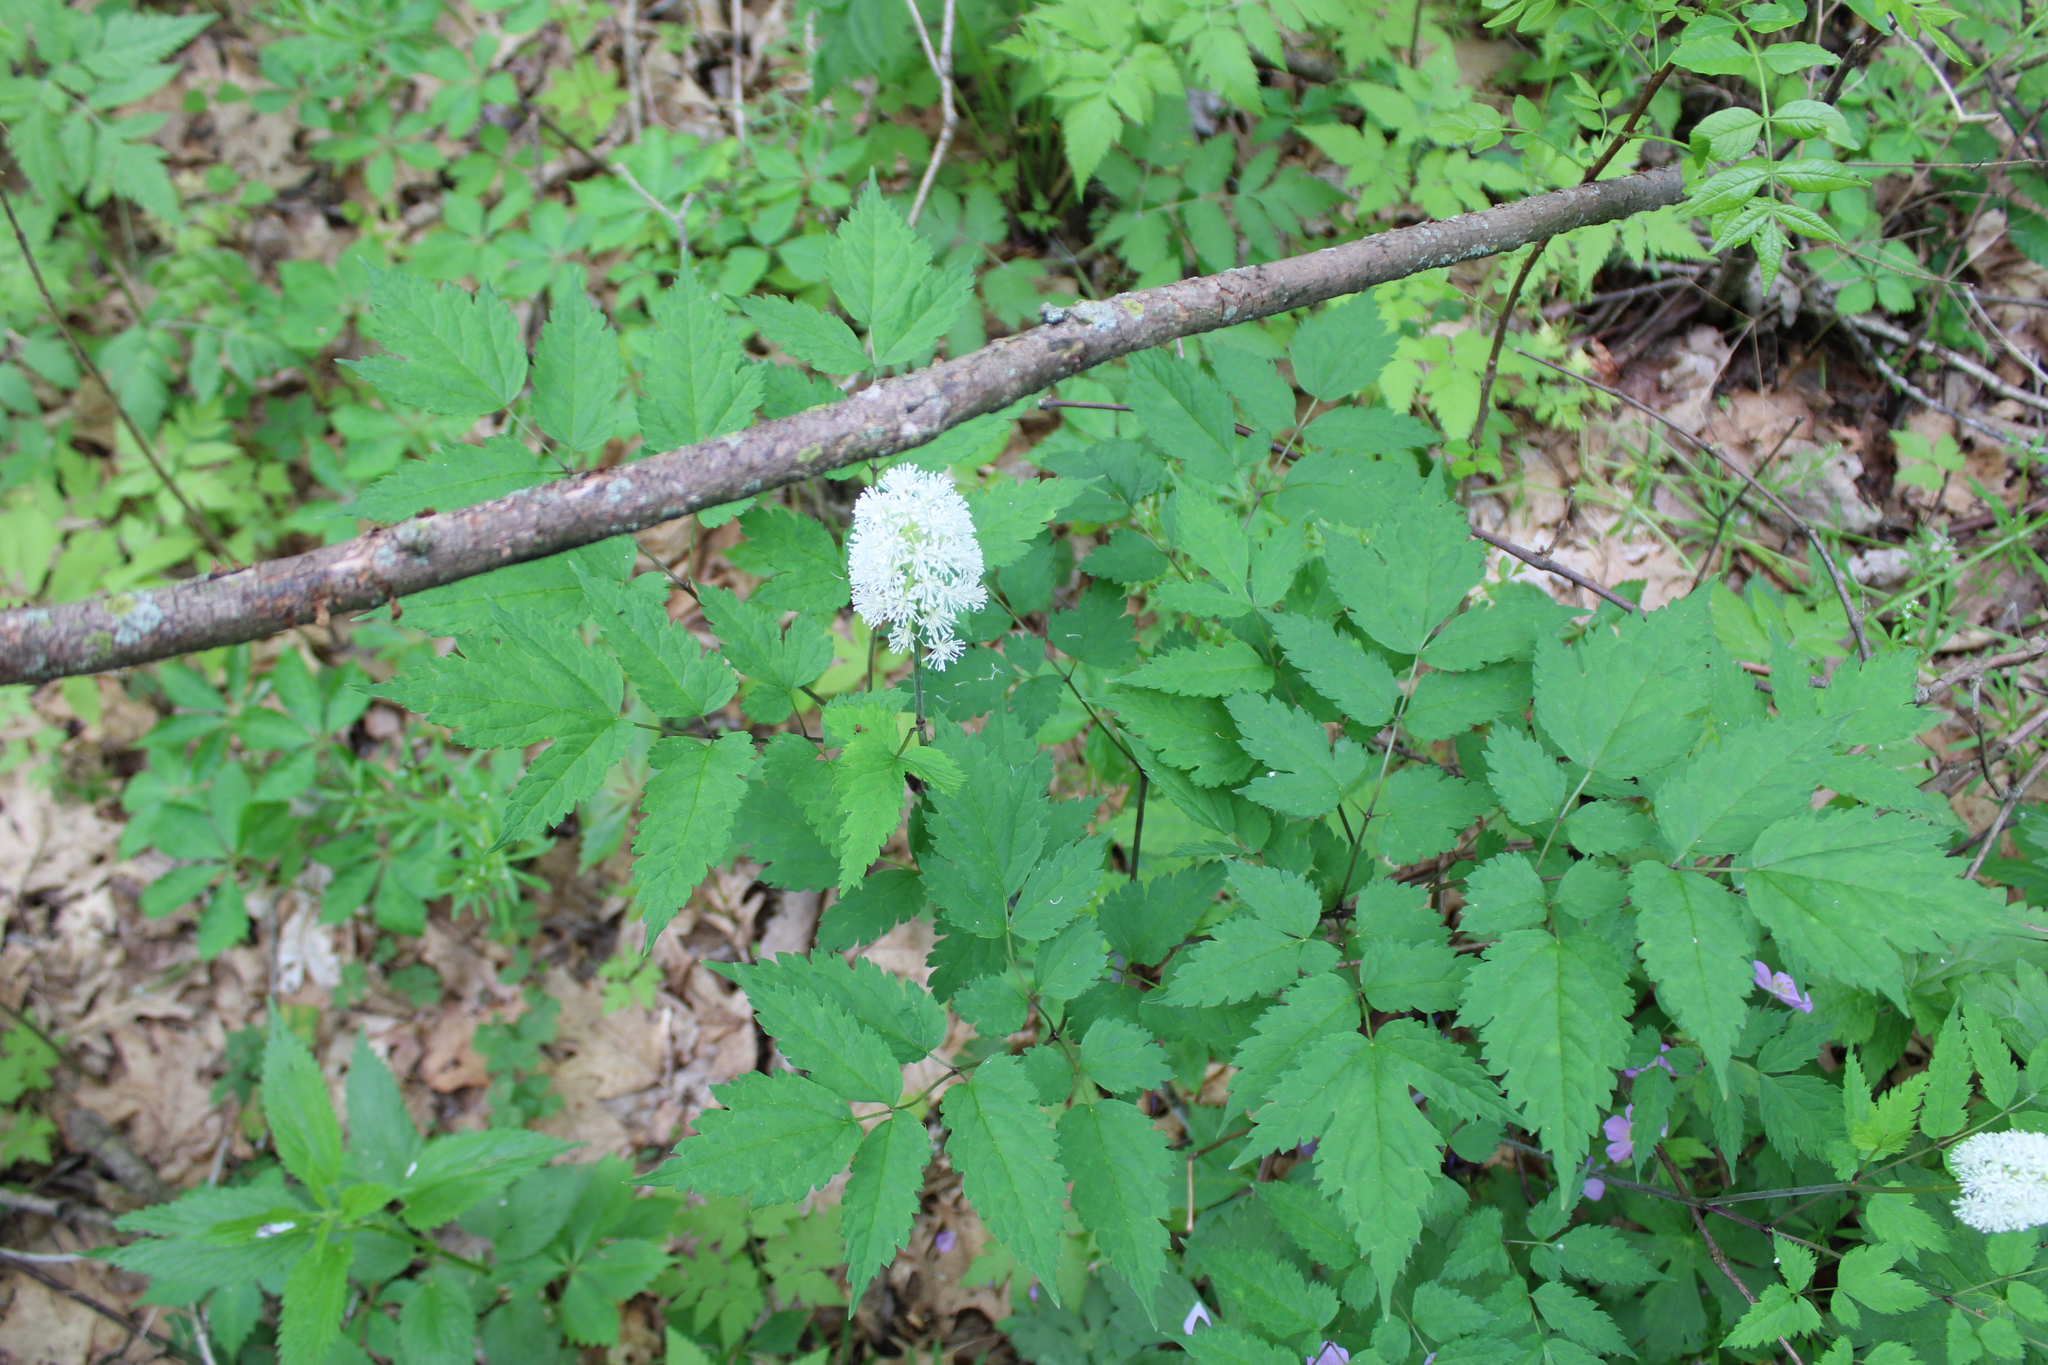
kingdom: Plantae
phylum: Tracheophyta
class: Magnoliopsida
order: Ranunculales
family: Ranunculaceae
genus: Actaea
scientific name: Actaea pachypoda
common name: Doll's-eyes
